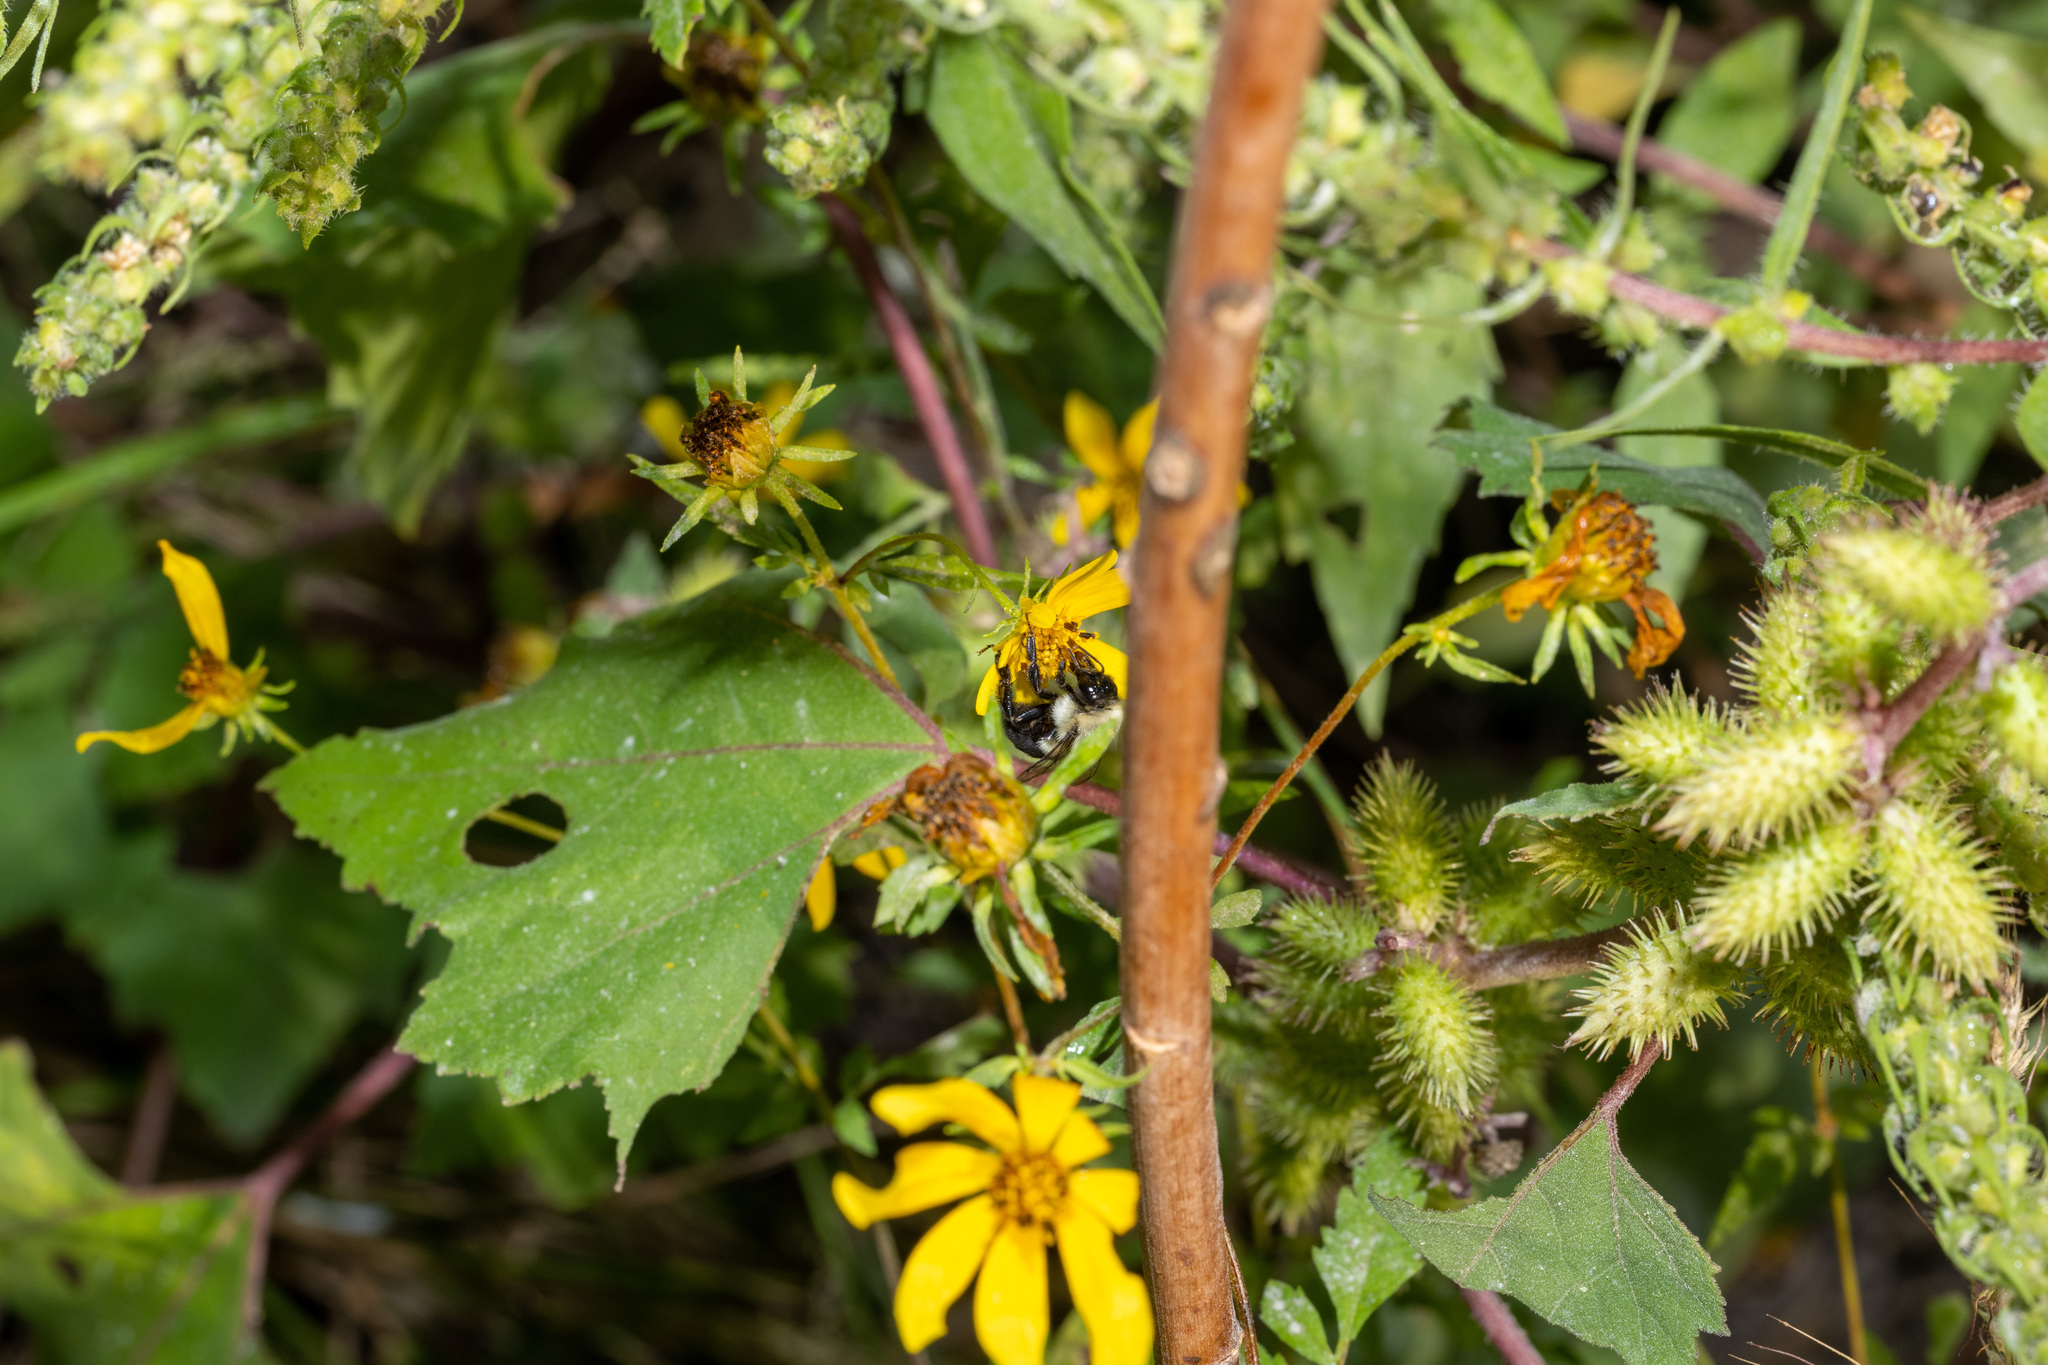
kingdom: Animalia
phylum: Arthropoda
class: Insecta
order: Hymenoptera
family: Apidae
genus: Bombus
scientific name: Bombus impatiens
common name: Common eastern bumble bee
